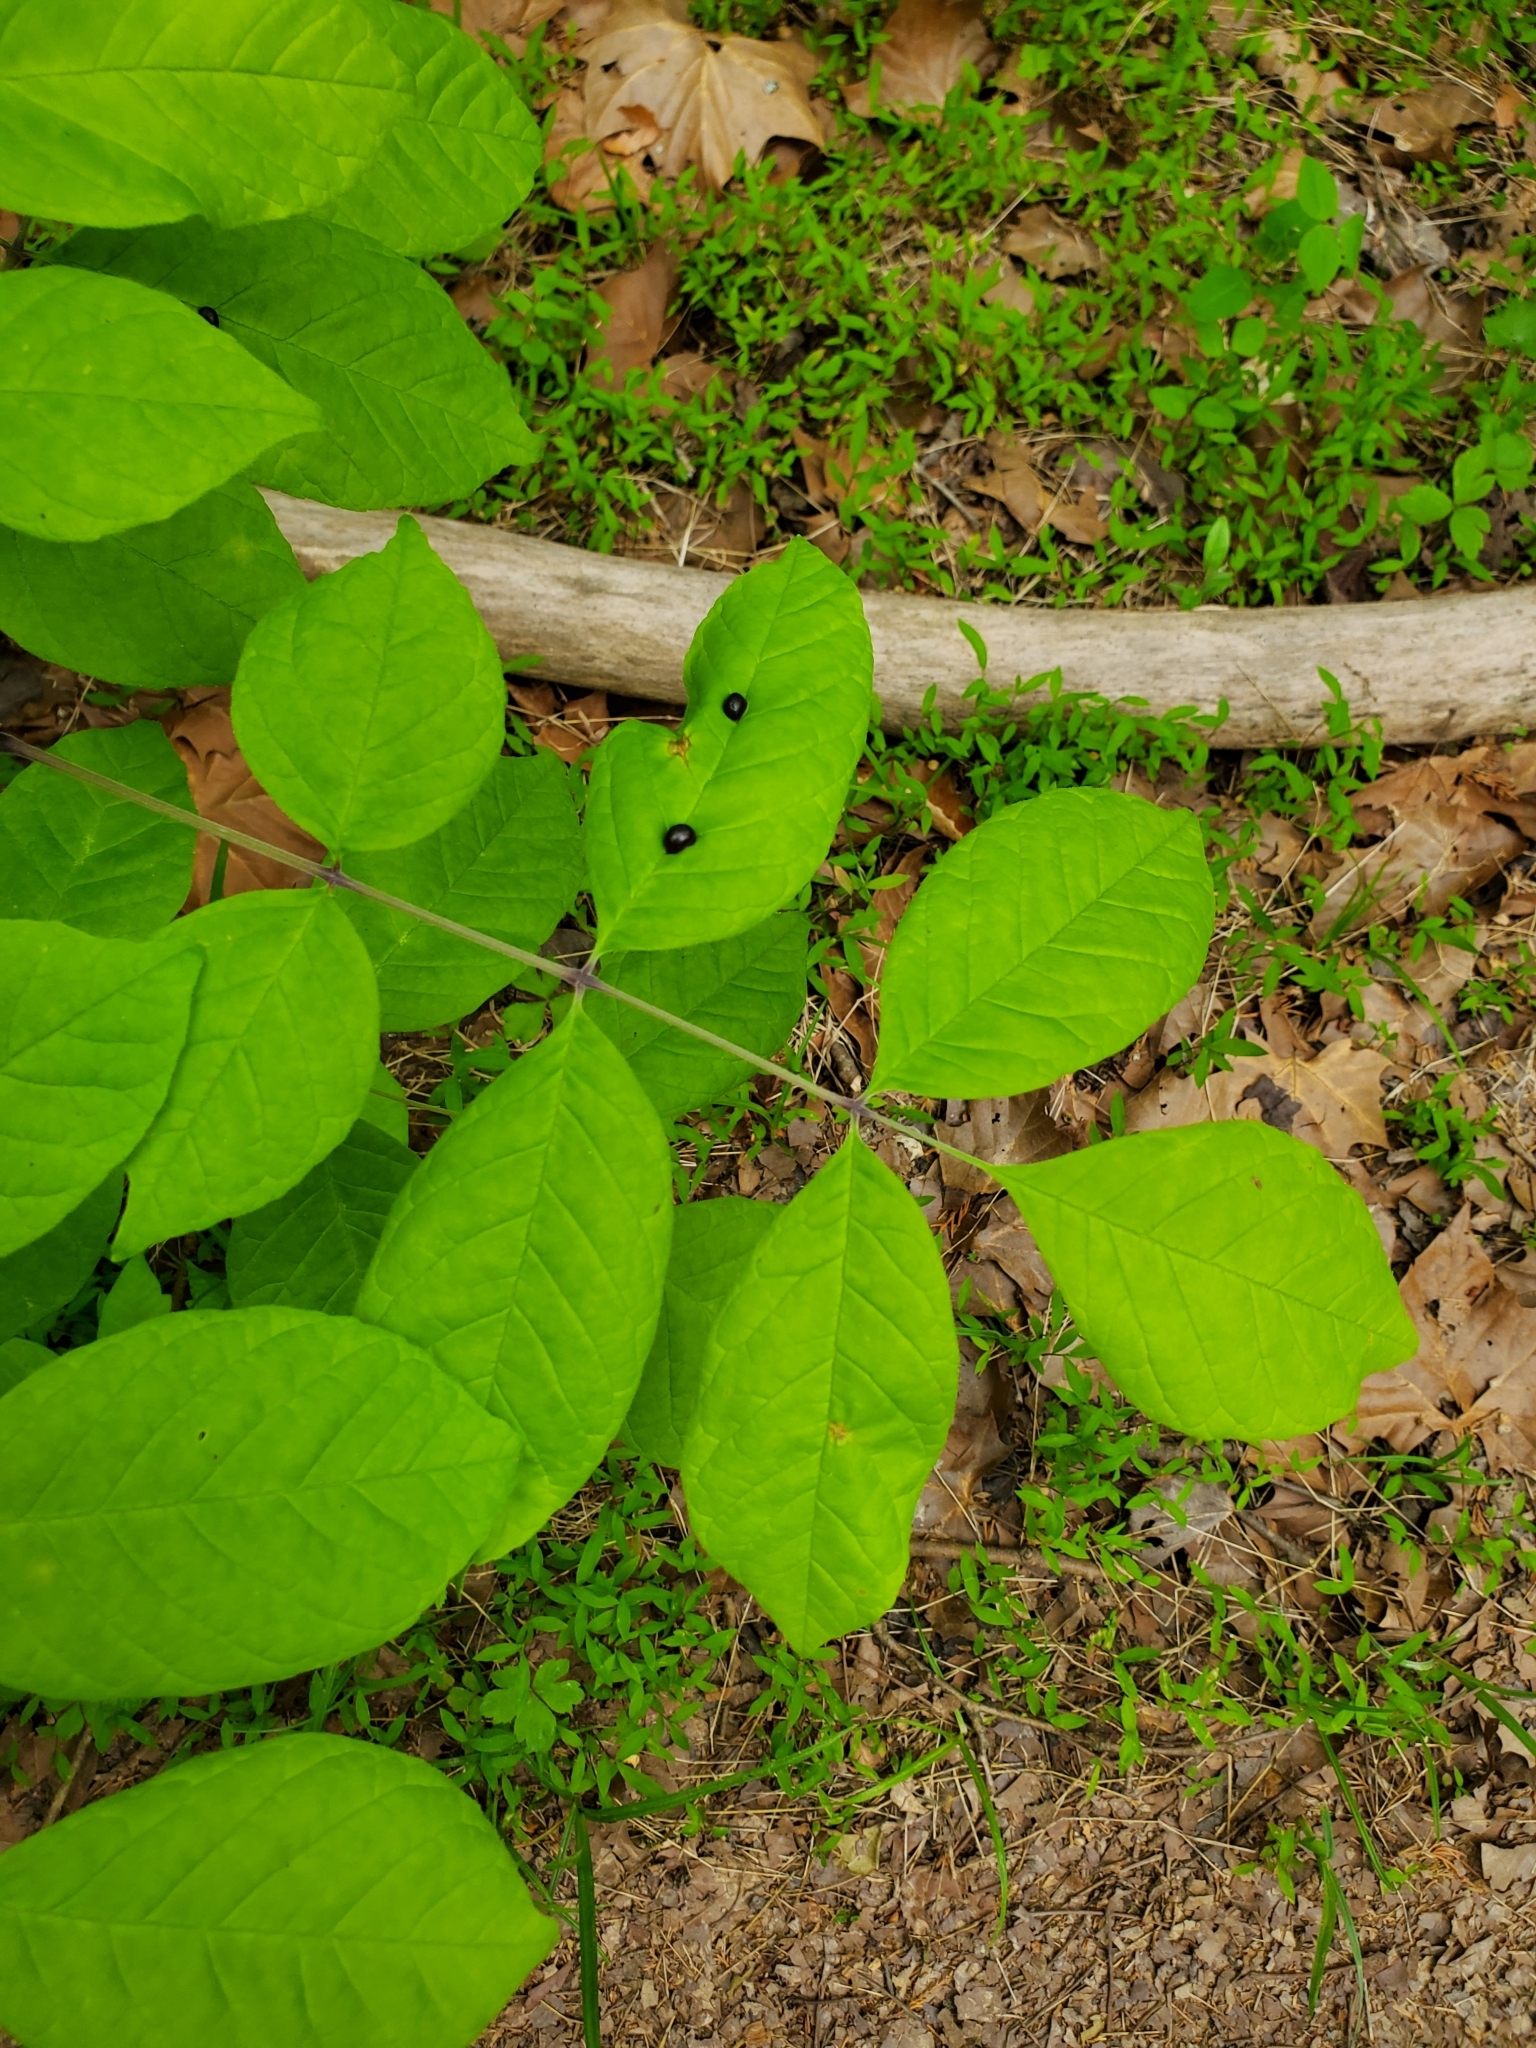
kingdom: Animalia
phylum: Arthropoda
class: Insecta
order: Diptera
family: Cecidomyiidae
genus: Dasineura
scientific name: Dasineura pellex
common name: Ash bullet gall midge
